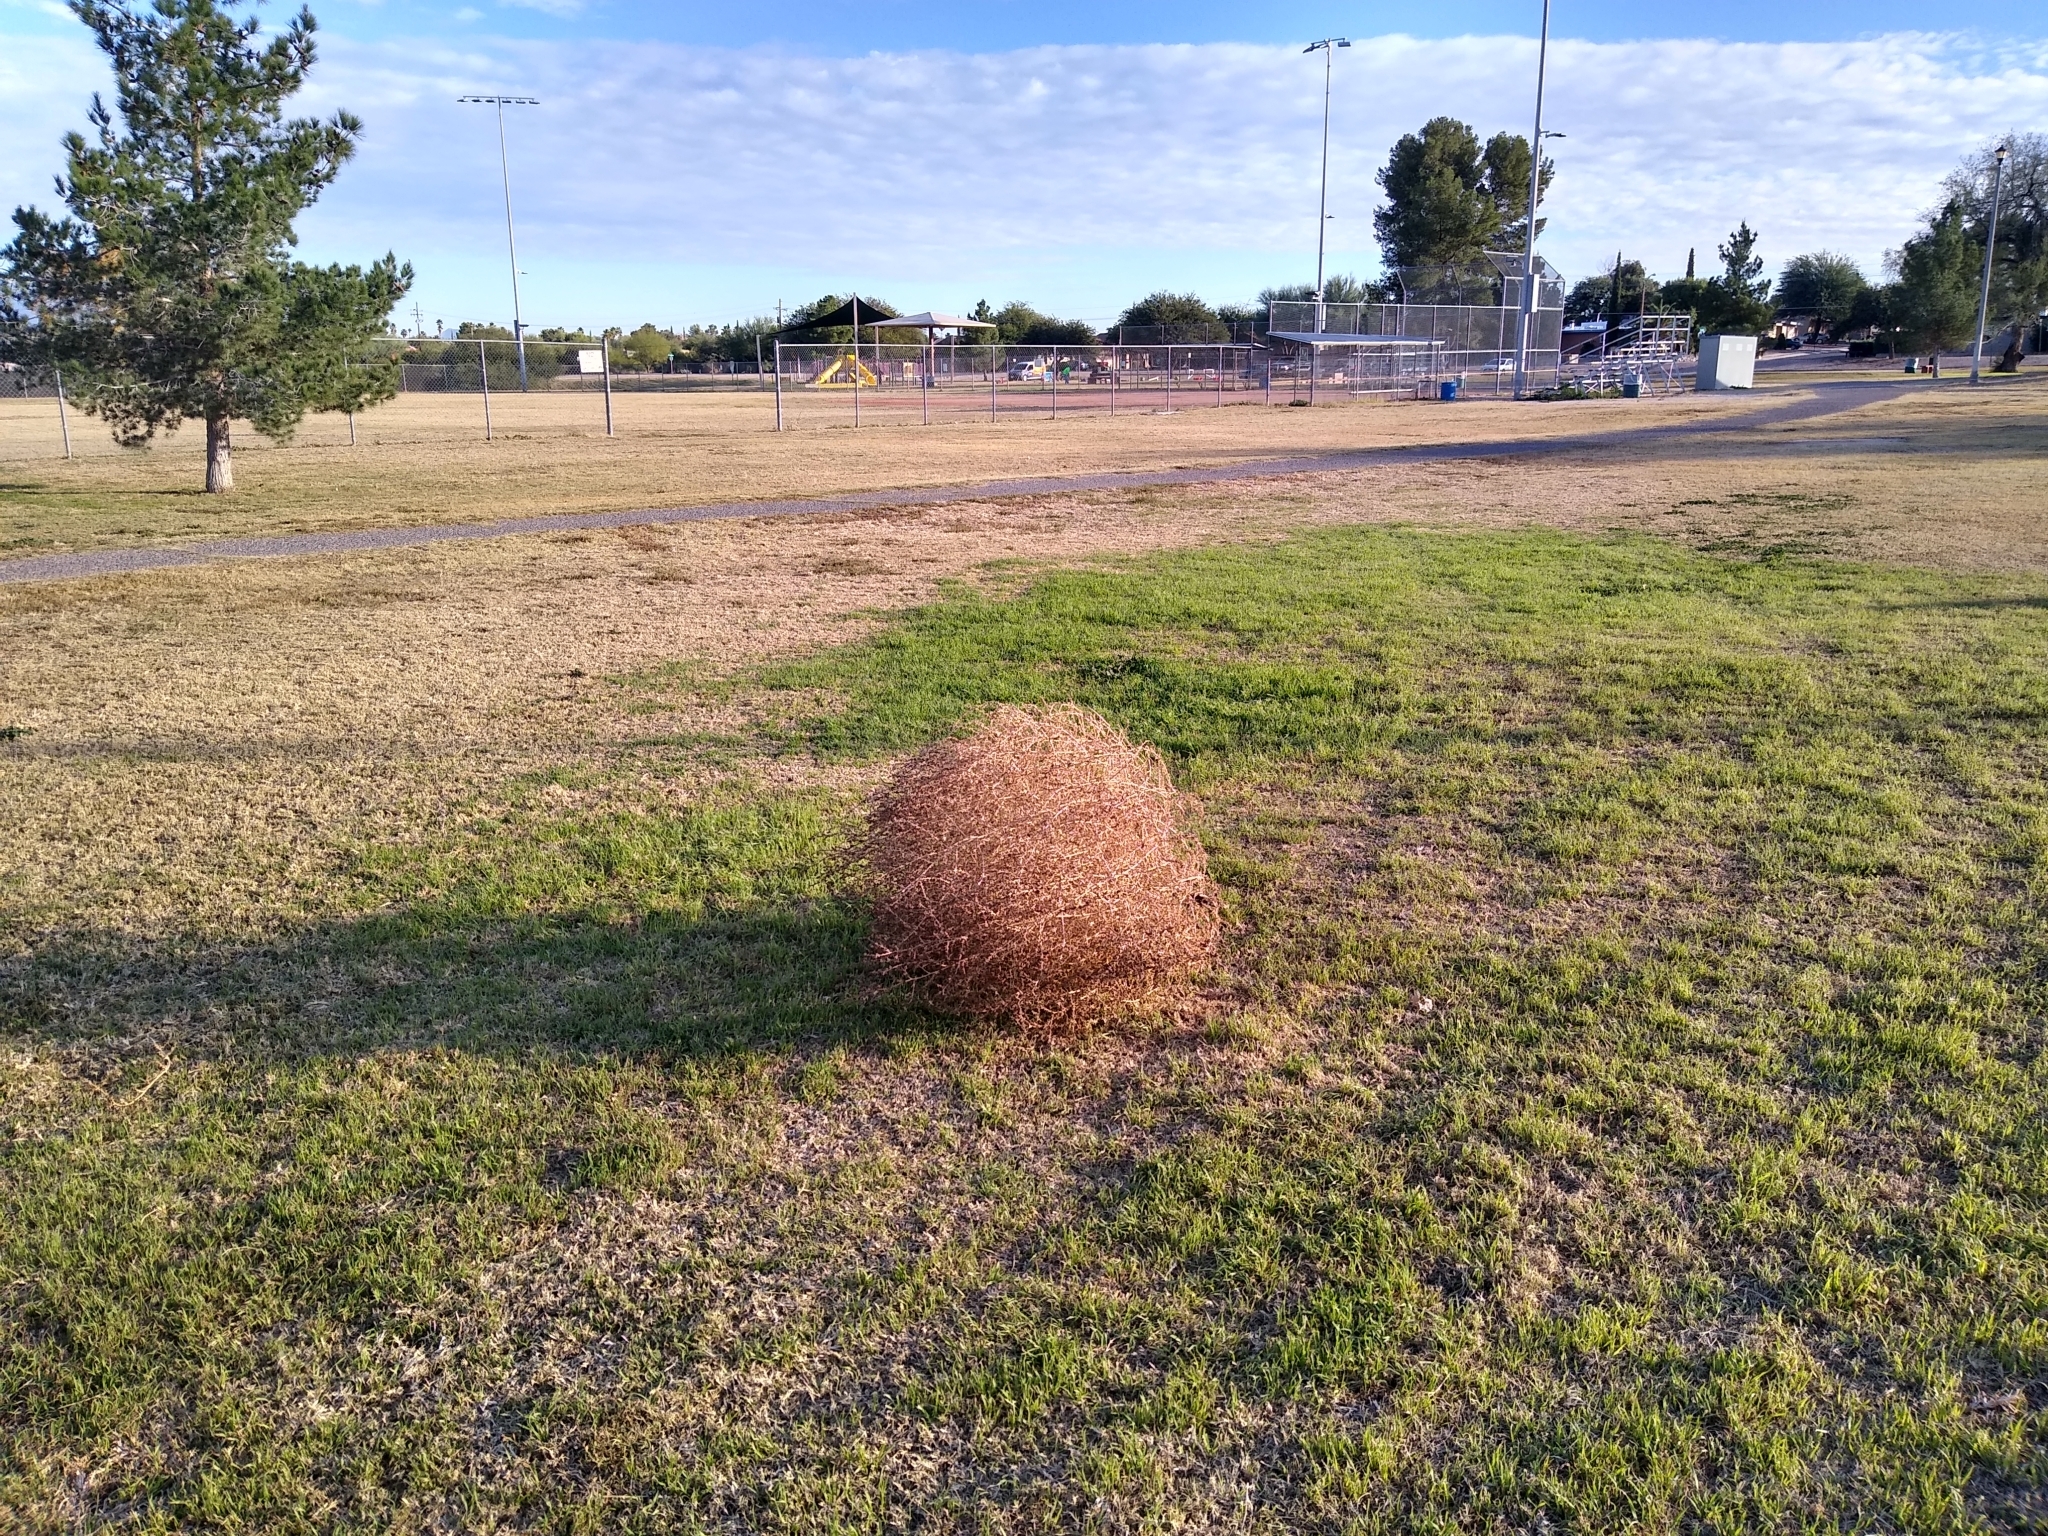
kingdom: Plantae
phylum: Tracheophyta
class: Magnoliopsida
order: Caryophyllales
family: Amaranthaceae
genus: Salsola
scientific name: Salsola tragus
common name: Prickly russian thistle
